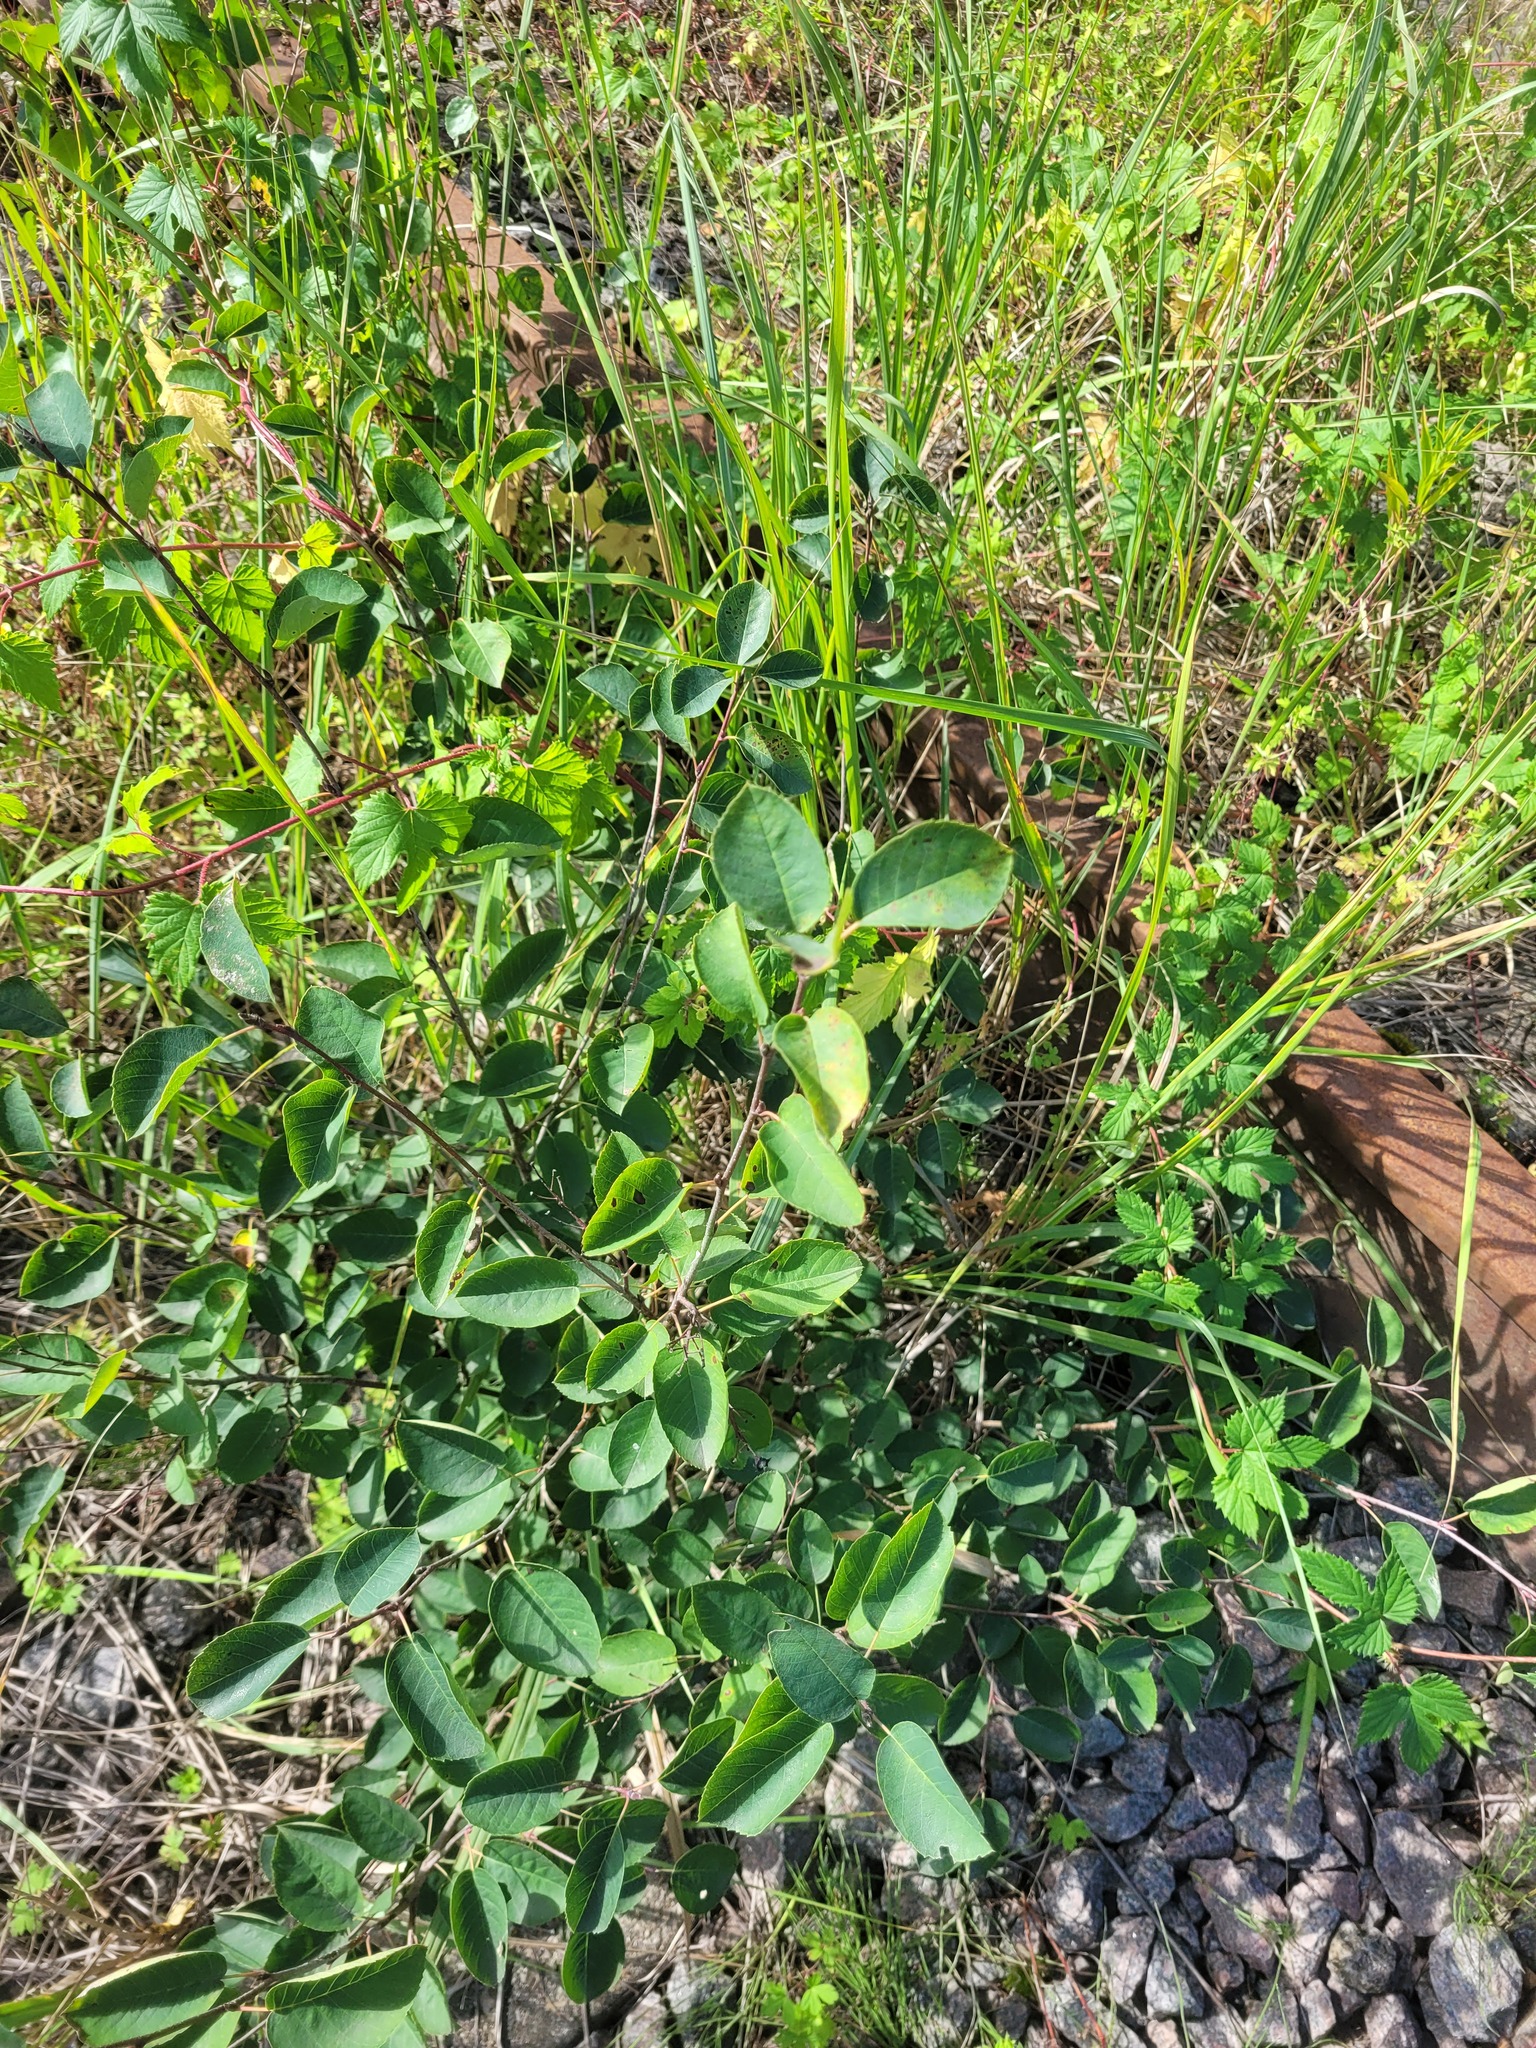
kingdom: Plantae
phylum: Tracheophyta
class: Magnoliopsida
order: Rosales
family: Rosaceae
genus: Amelanchier
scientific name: Amelanchier
